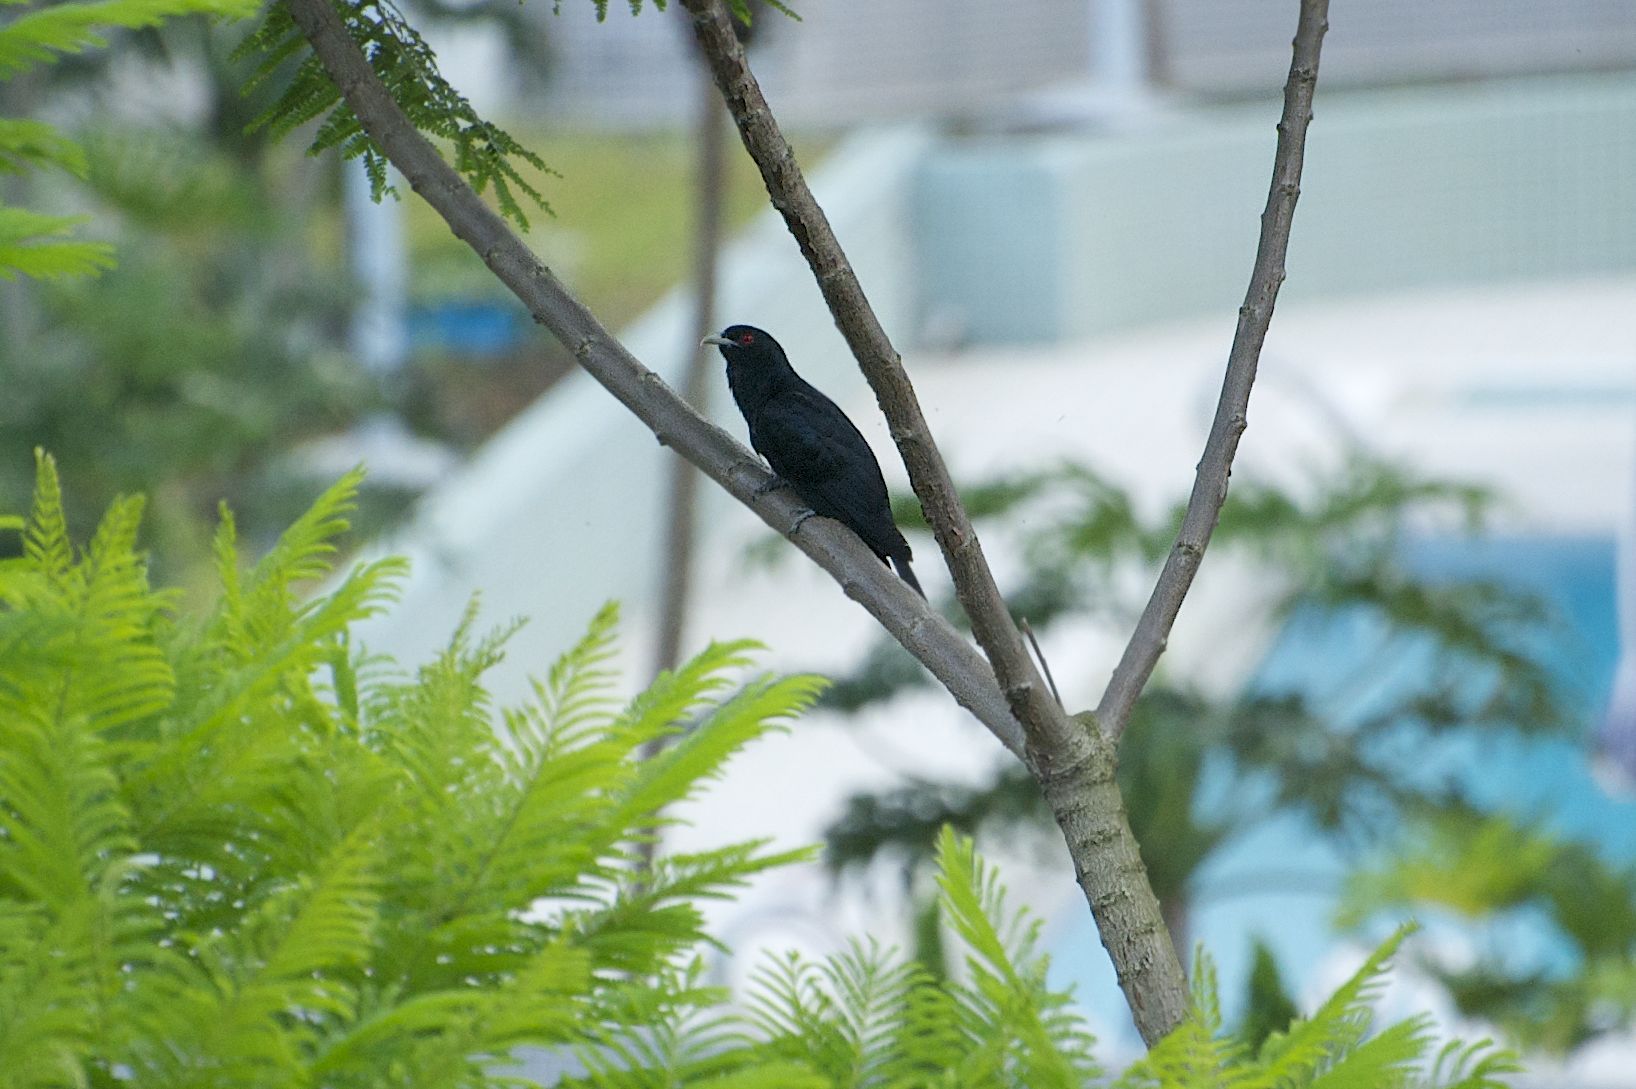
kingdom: Animalia
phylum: Chordata
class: Aves
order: Cuculiformes
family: Cuculidae
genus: Eudynamys
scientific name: Eudynamys scolopaceus
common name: Asian koel
